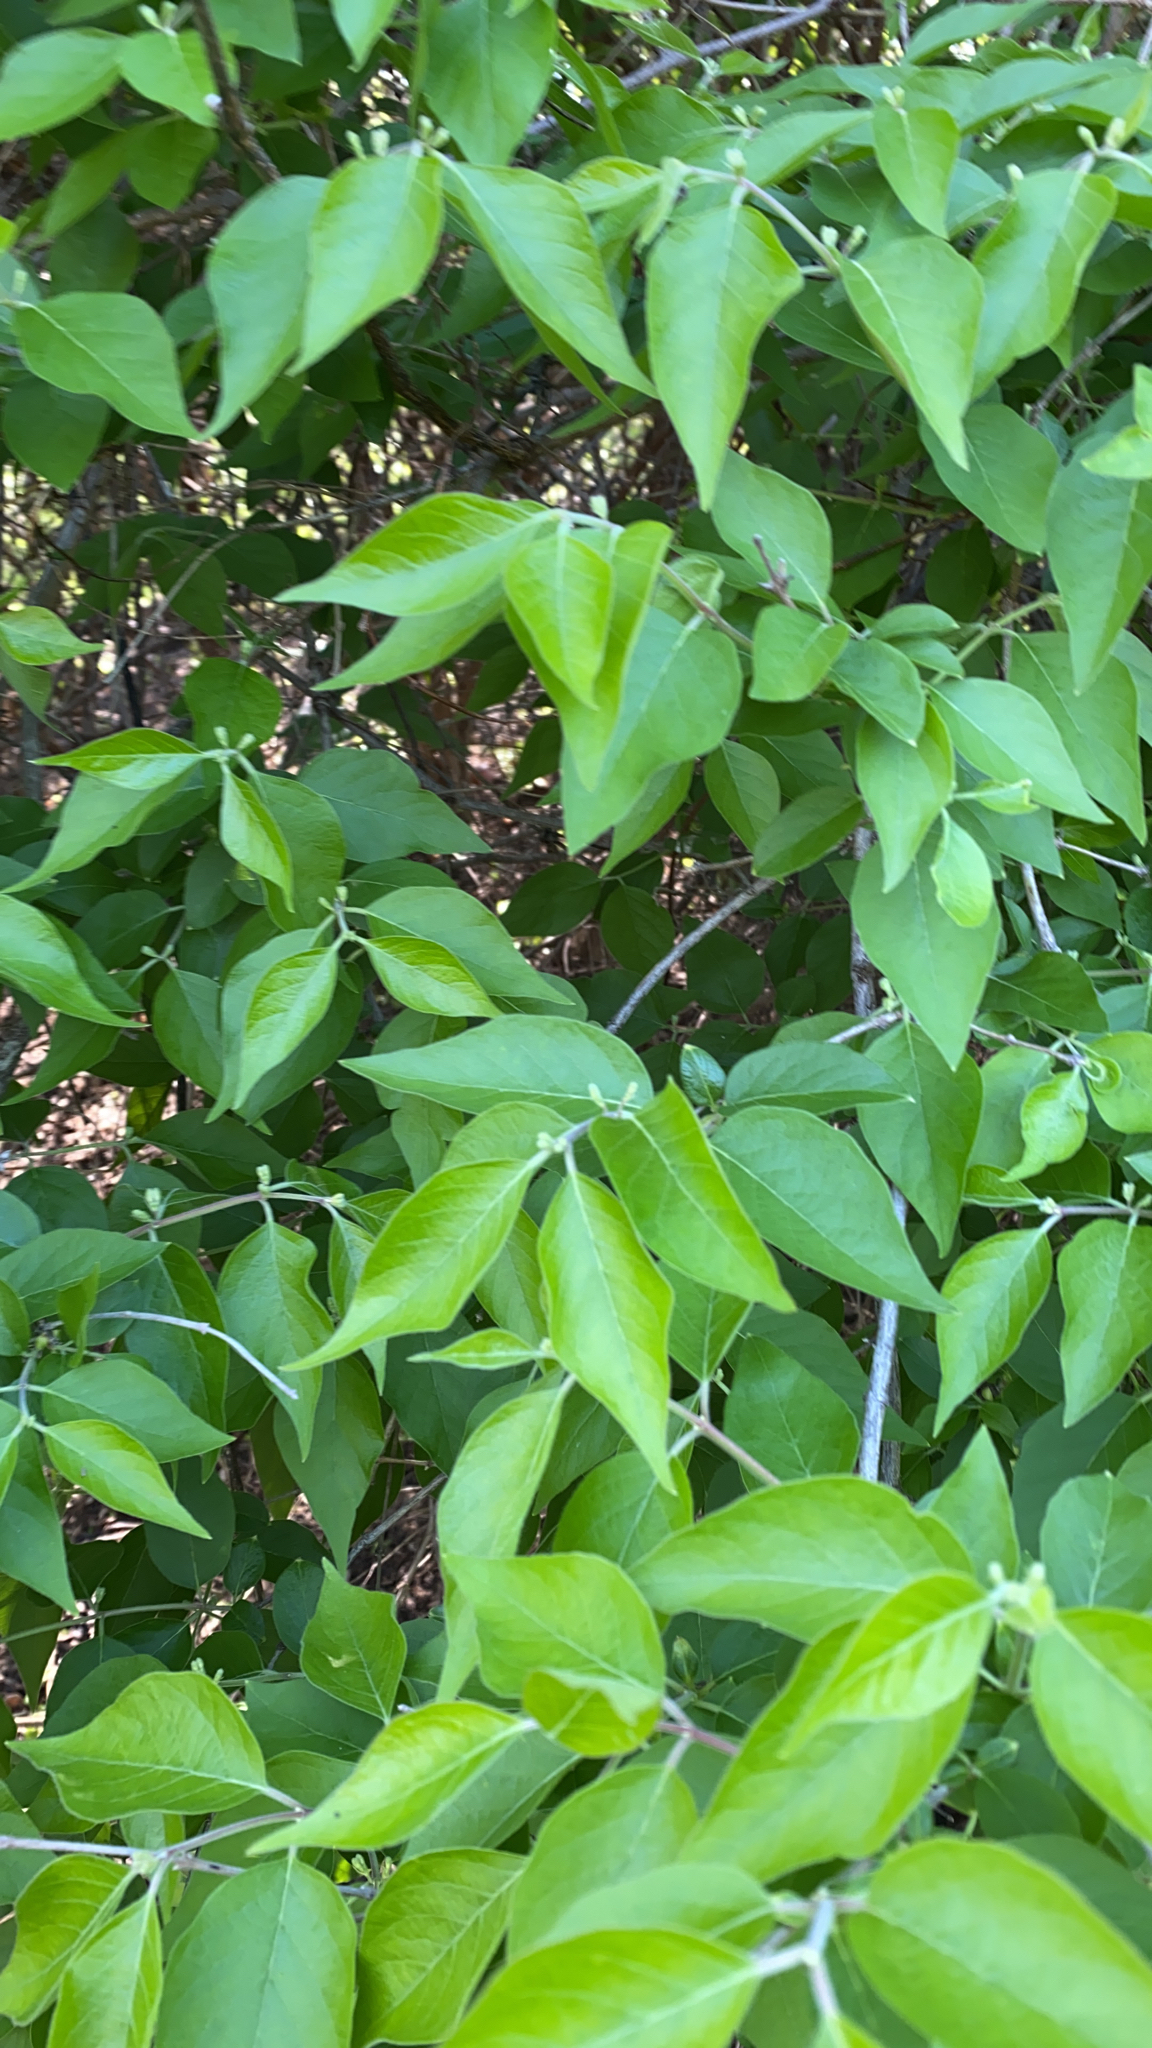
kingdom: Plantae
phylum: Tracheophyta
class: Magnoliopsida
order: Dipsacales
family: Caprifoliaceae
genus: Lonicera
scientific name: Lonicera maackii
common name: Amur honeysuckle
